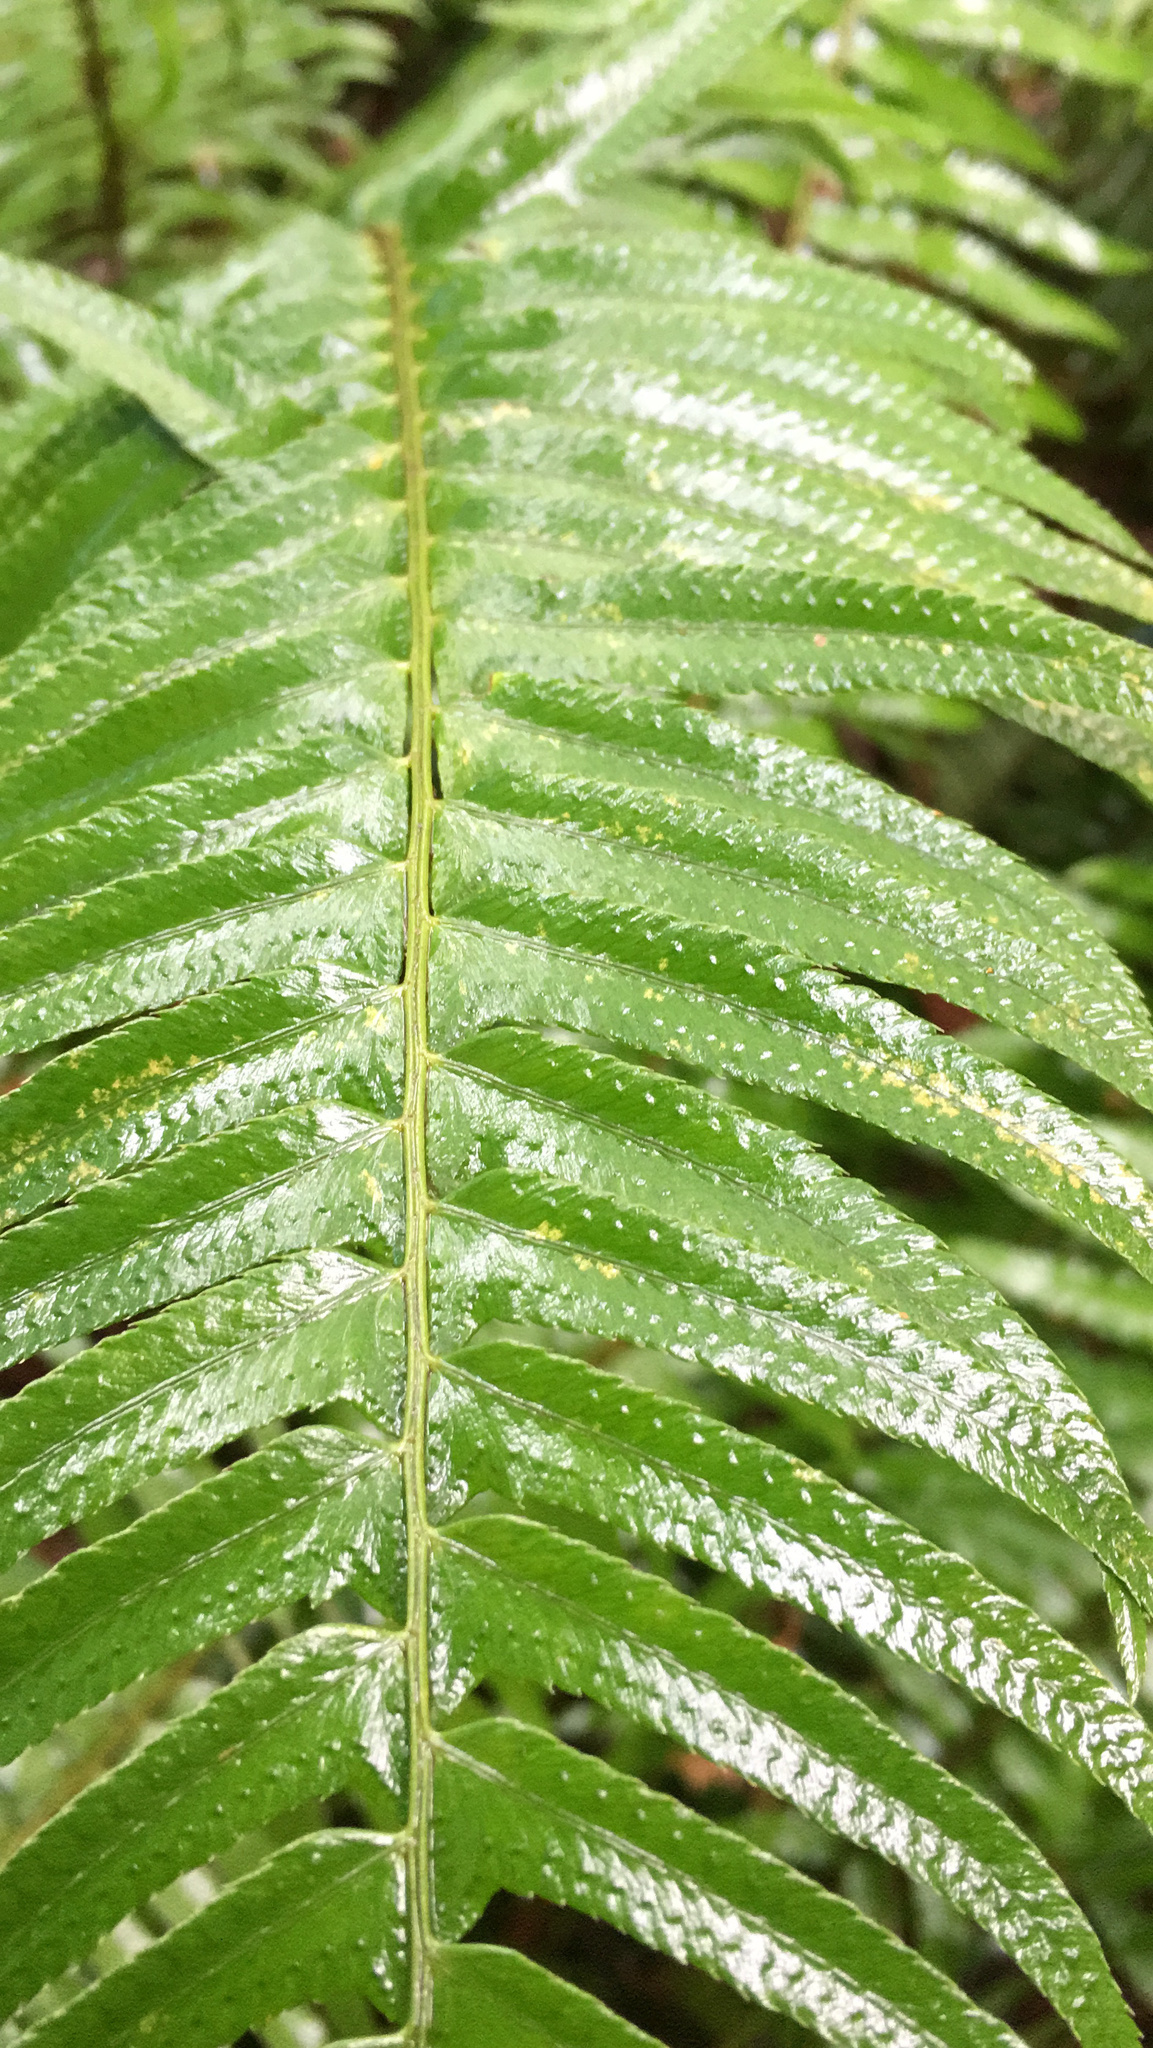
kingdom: Plantae
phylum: Tracheophyta
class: Polypodiopsida
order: Polypodiales
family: Dryopteridaceae
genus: Polystichum
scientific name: Polystichum munitum
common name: Western sword-fern
